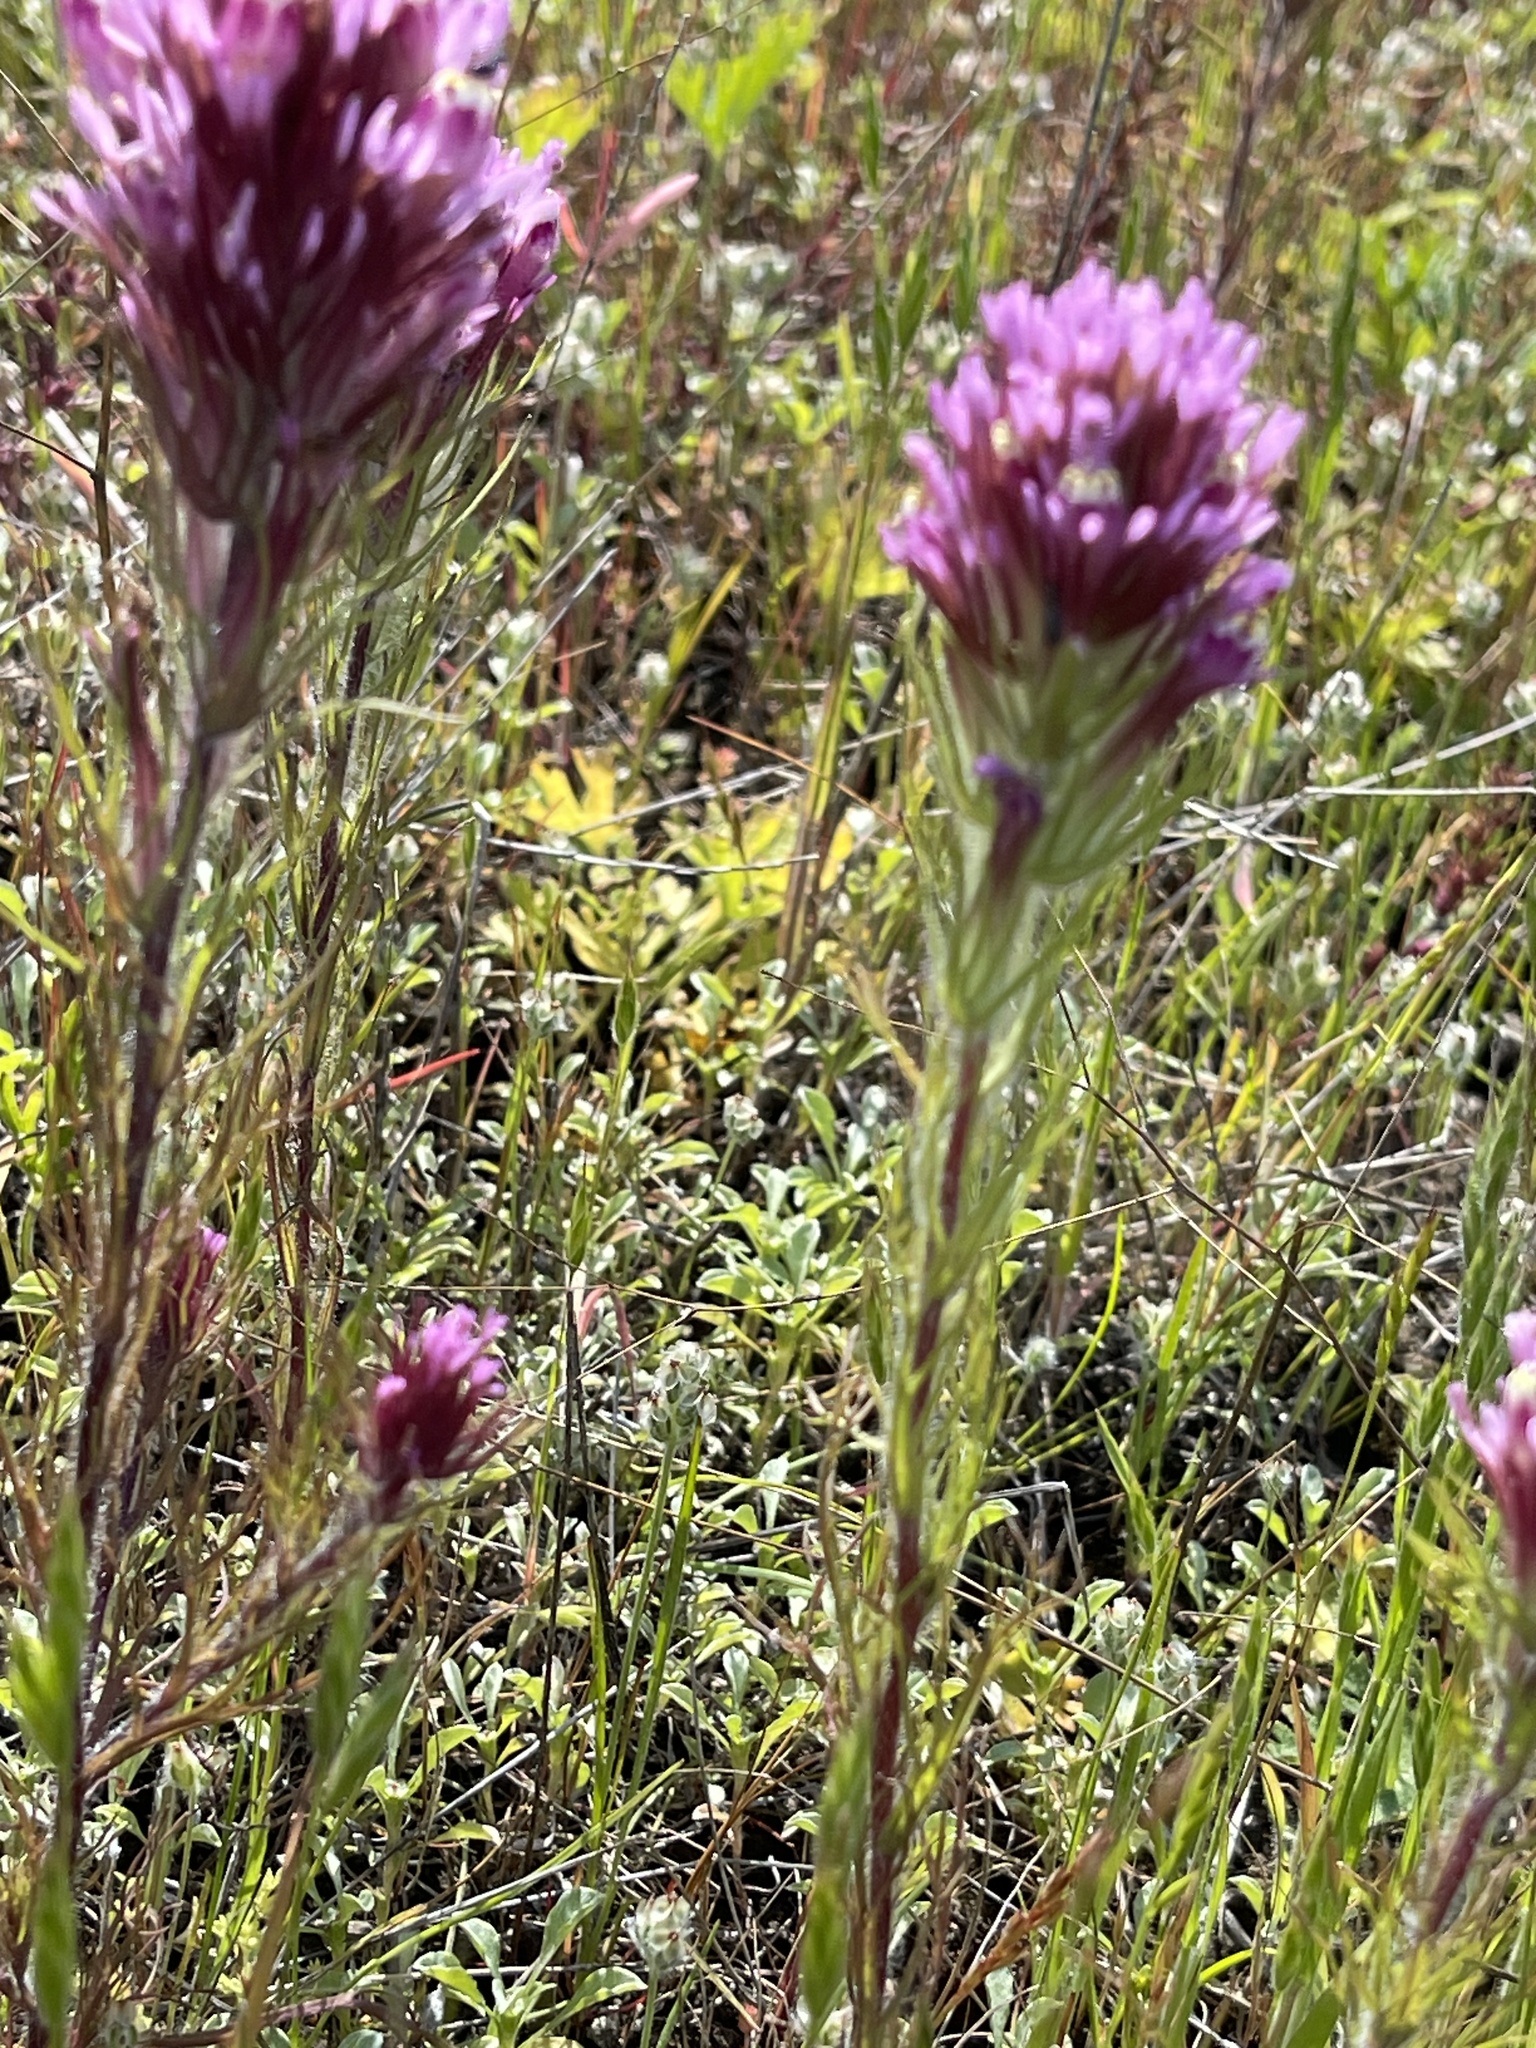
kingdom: Plantae
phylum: Tracheophyta
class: Magnoliopsida
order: Lamiales
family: Orobanchaceae
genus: Castilleja
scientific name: Castilleja exserta
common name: Purple owl-clover
